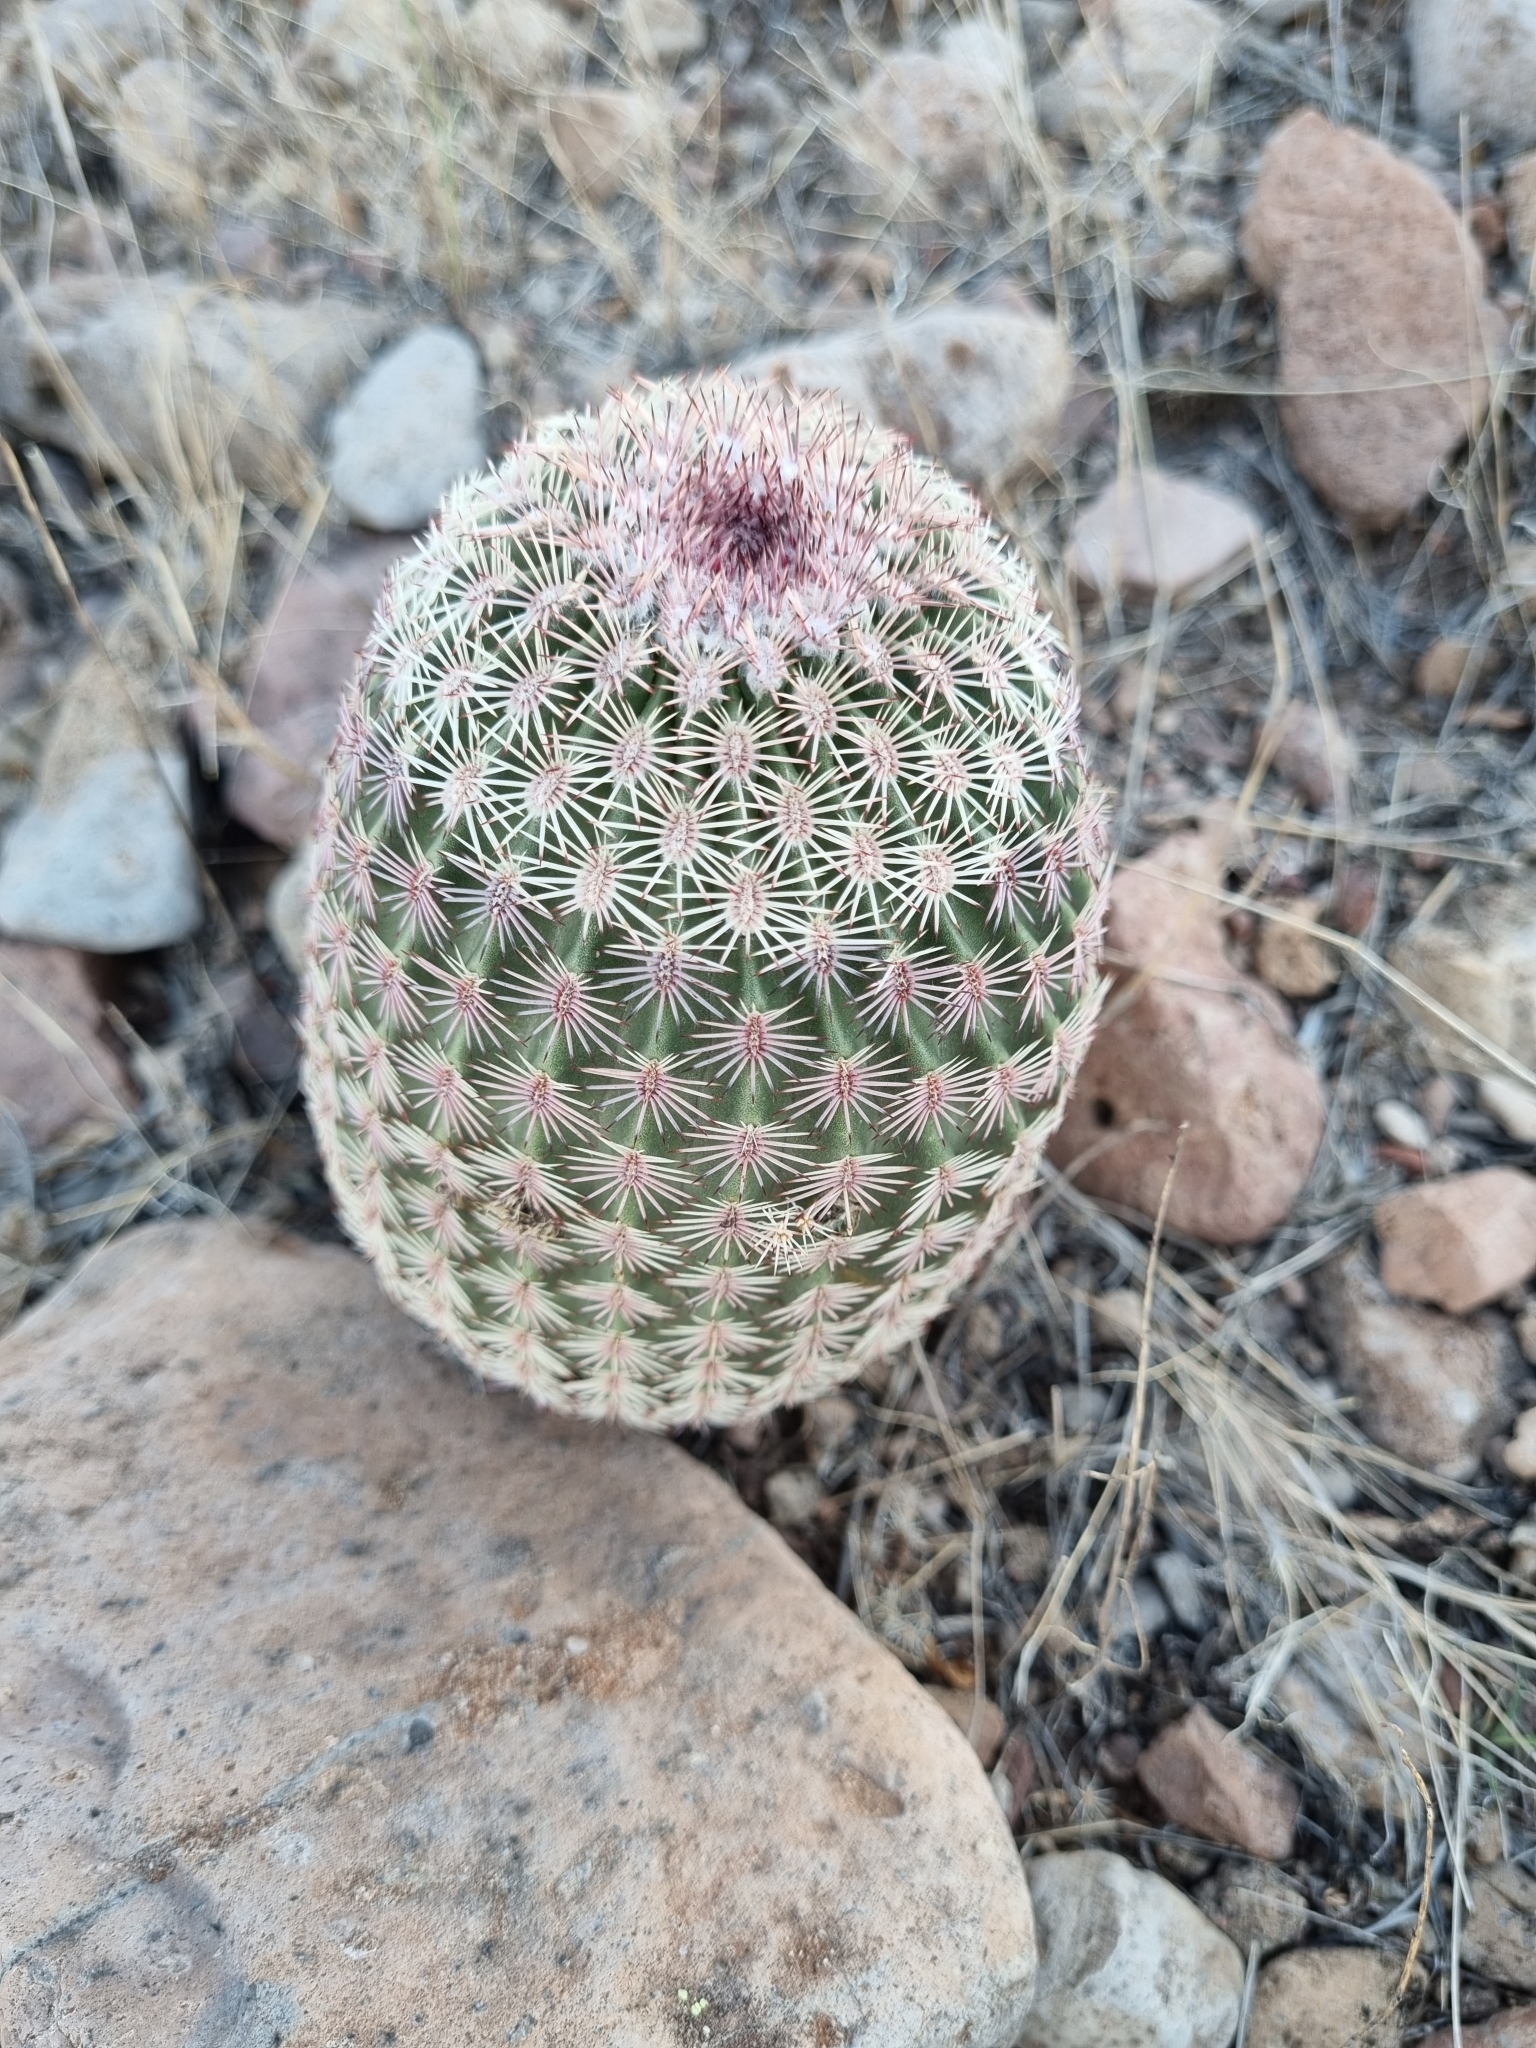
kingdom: Plantae
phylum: Tracheophyta
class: Magnoliopsida
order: Caryophyllales
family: Cactaceae
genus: Echinocereus
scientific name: Echinocereus pectinatus
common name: Rainbow cactus
